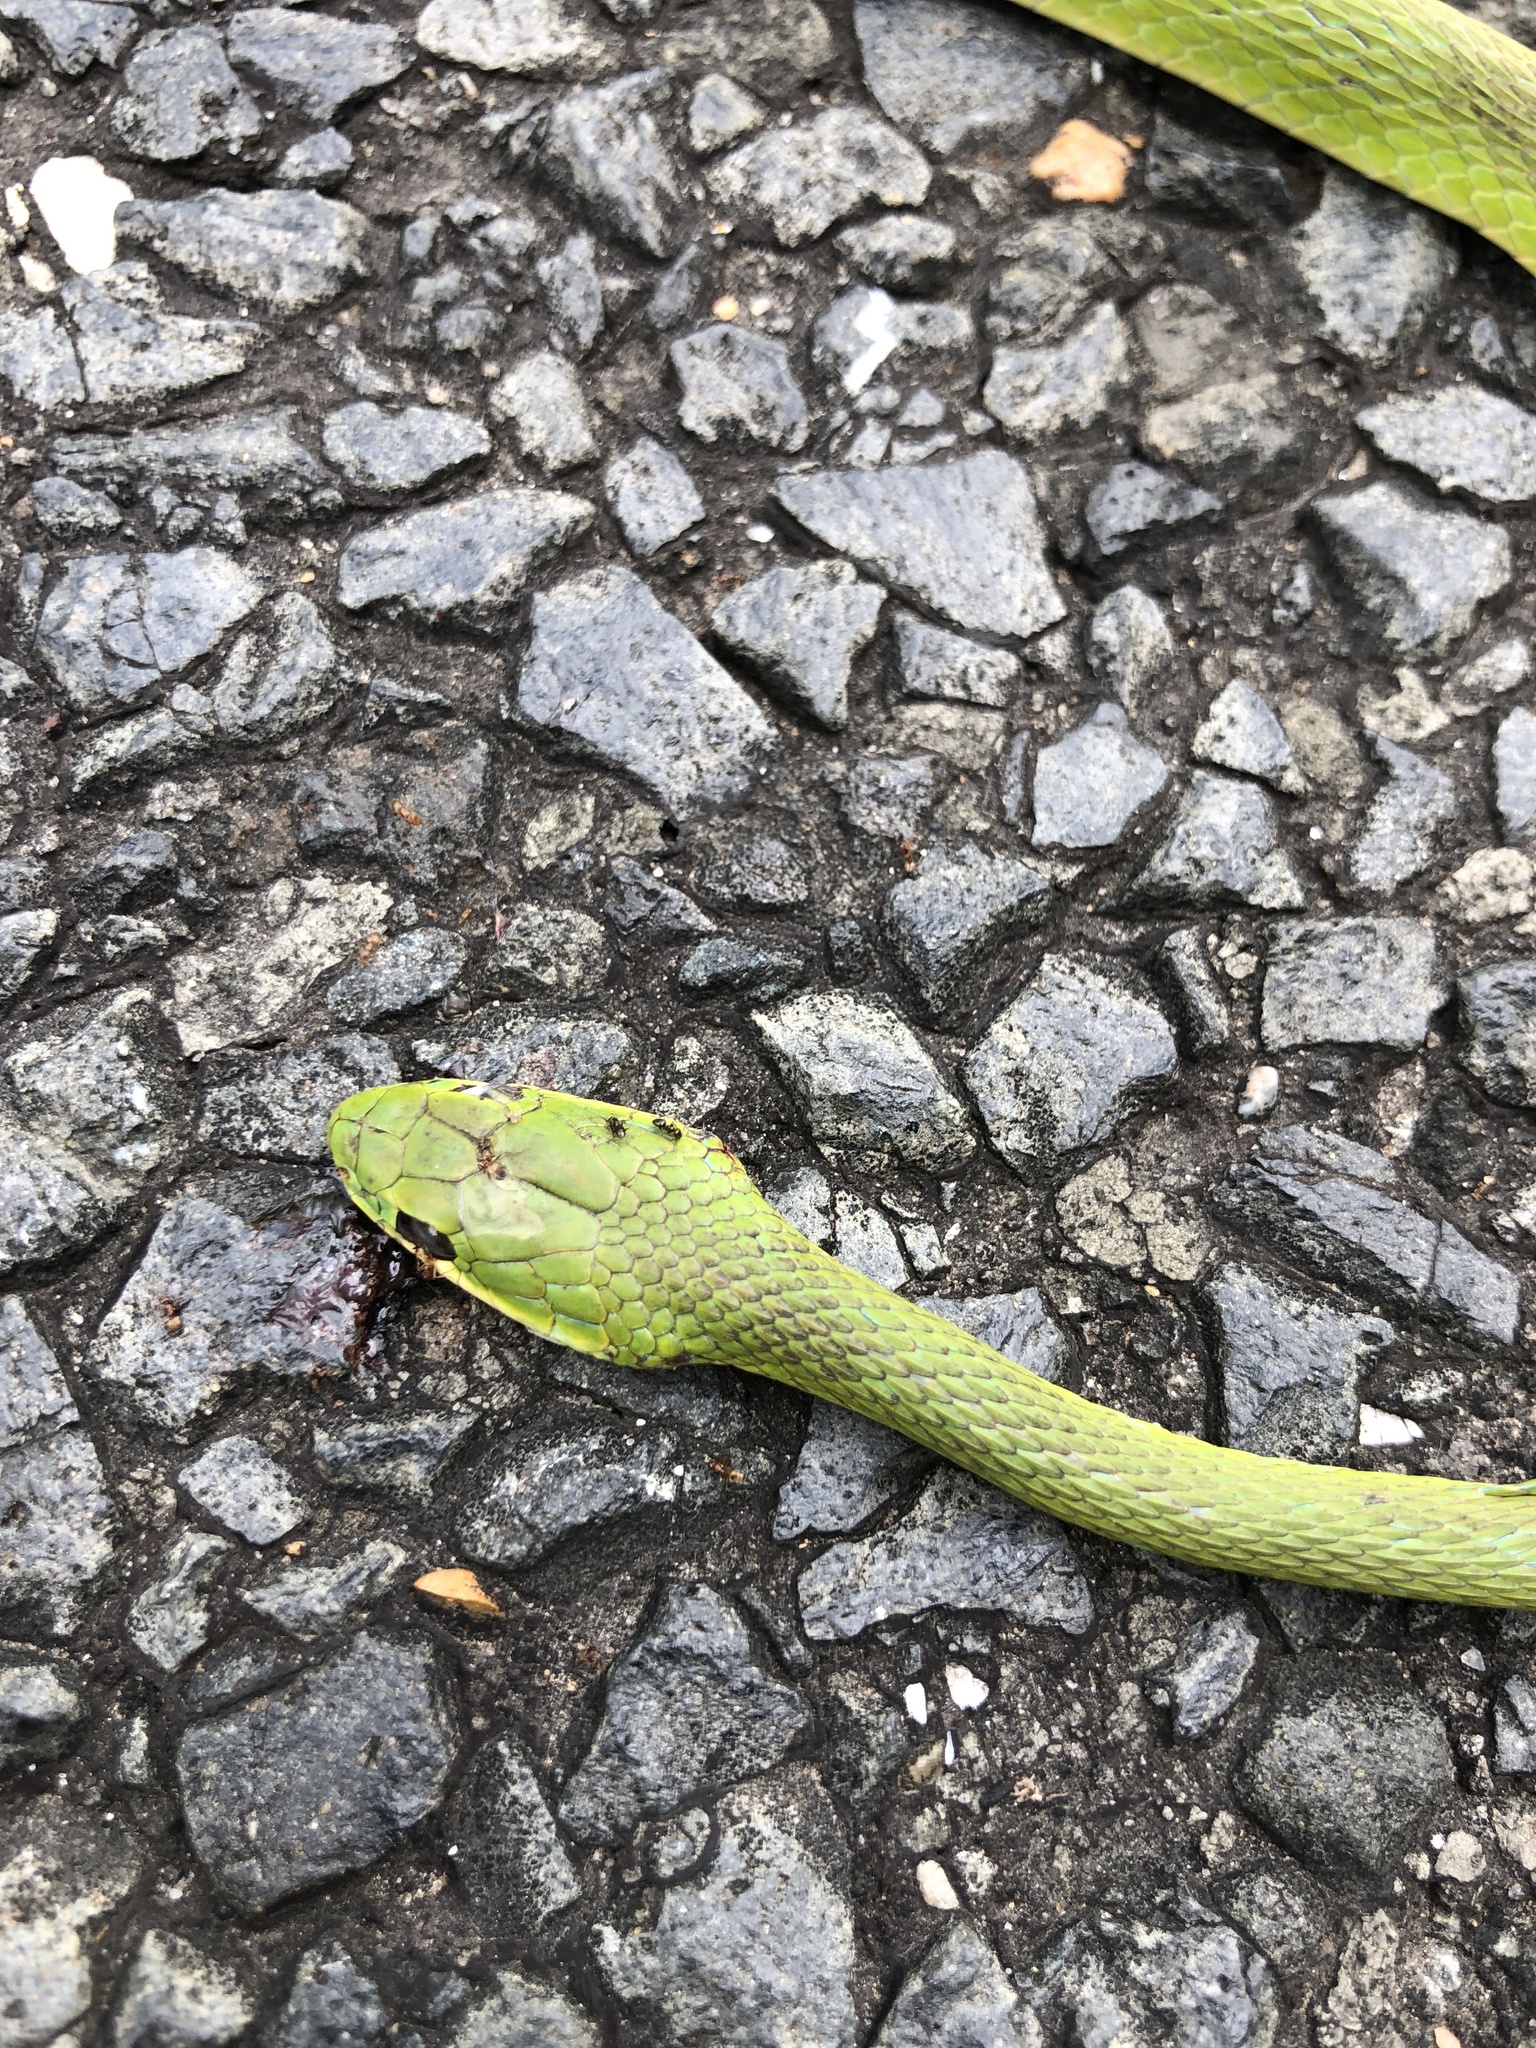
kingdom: Animalia
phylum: Chordata
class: Squamata
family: Colubridae
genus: Opheodrys
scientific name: Opheodrys aestivus
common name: Rough greensnake
